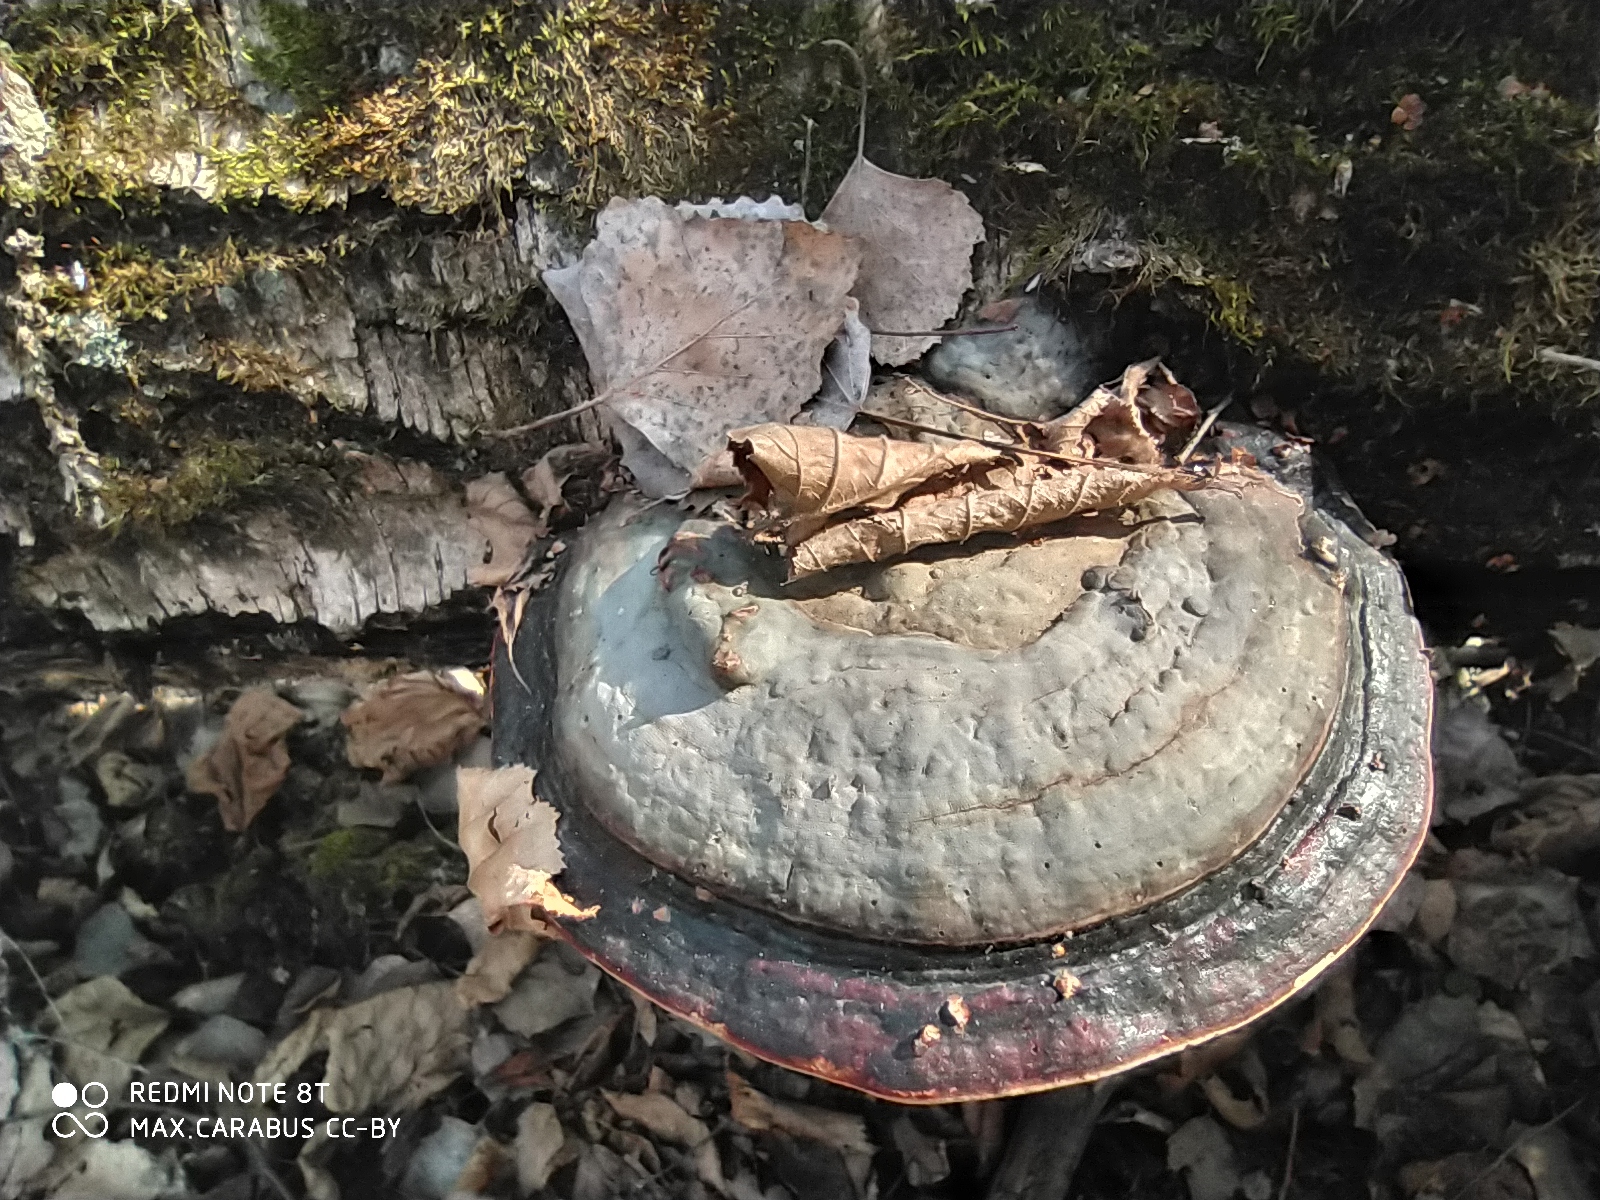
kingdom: Fungi
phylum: Basidiomycota
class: Agaricomycetes
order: Polyporales
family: Fomitopsidaceae
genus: Fomitopsis
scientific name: Fomitopsis pinicola
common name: Red-belted bracket
